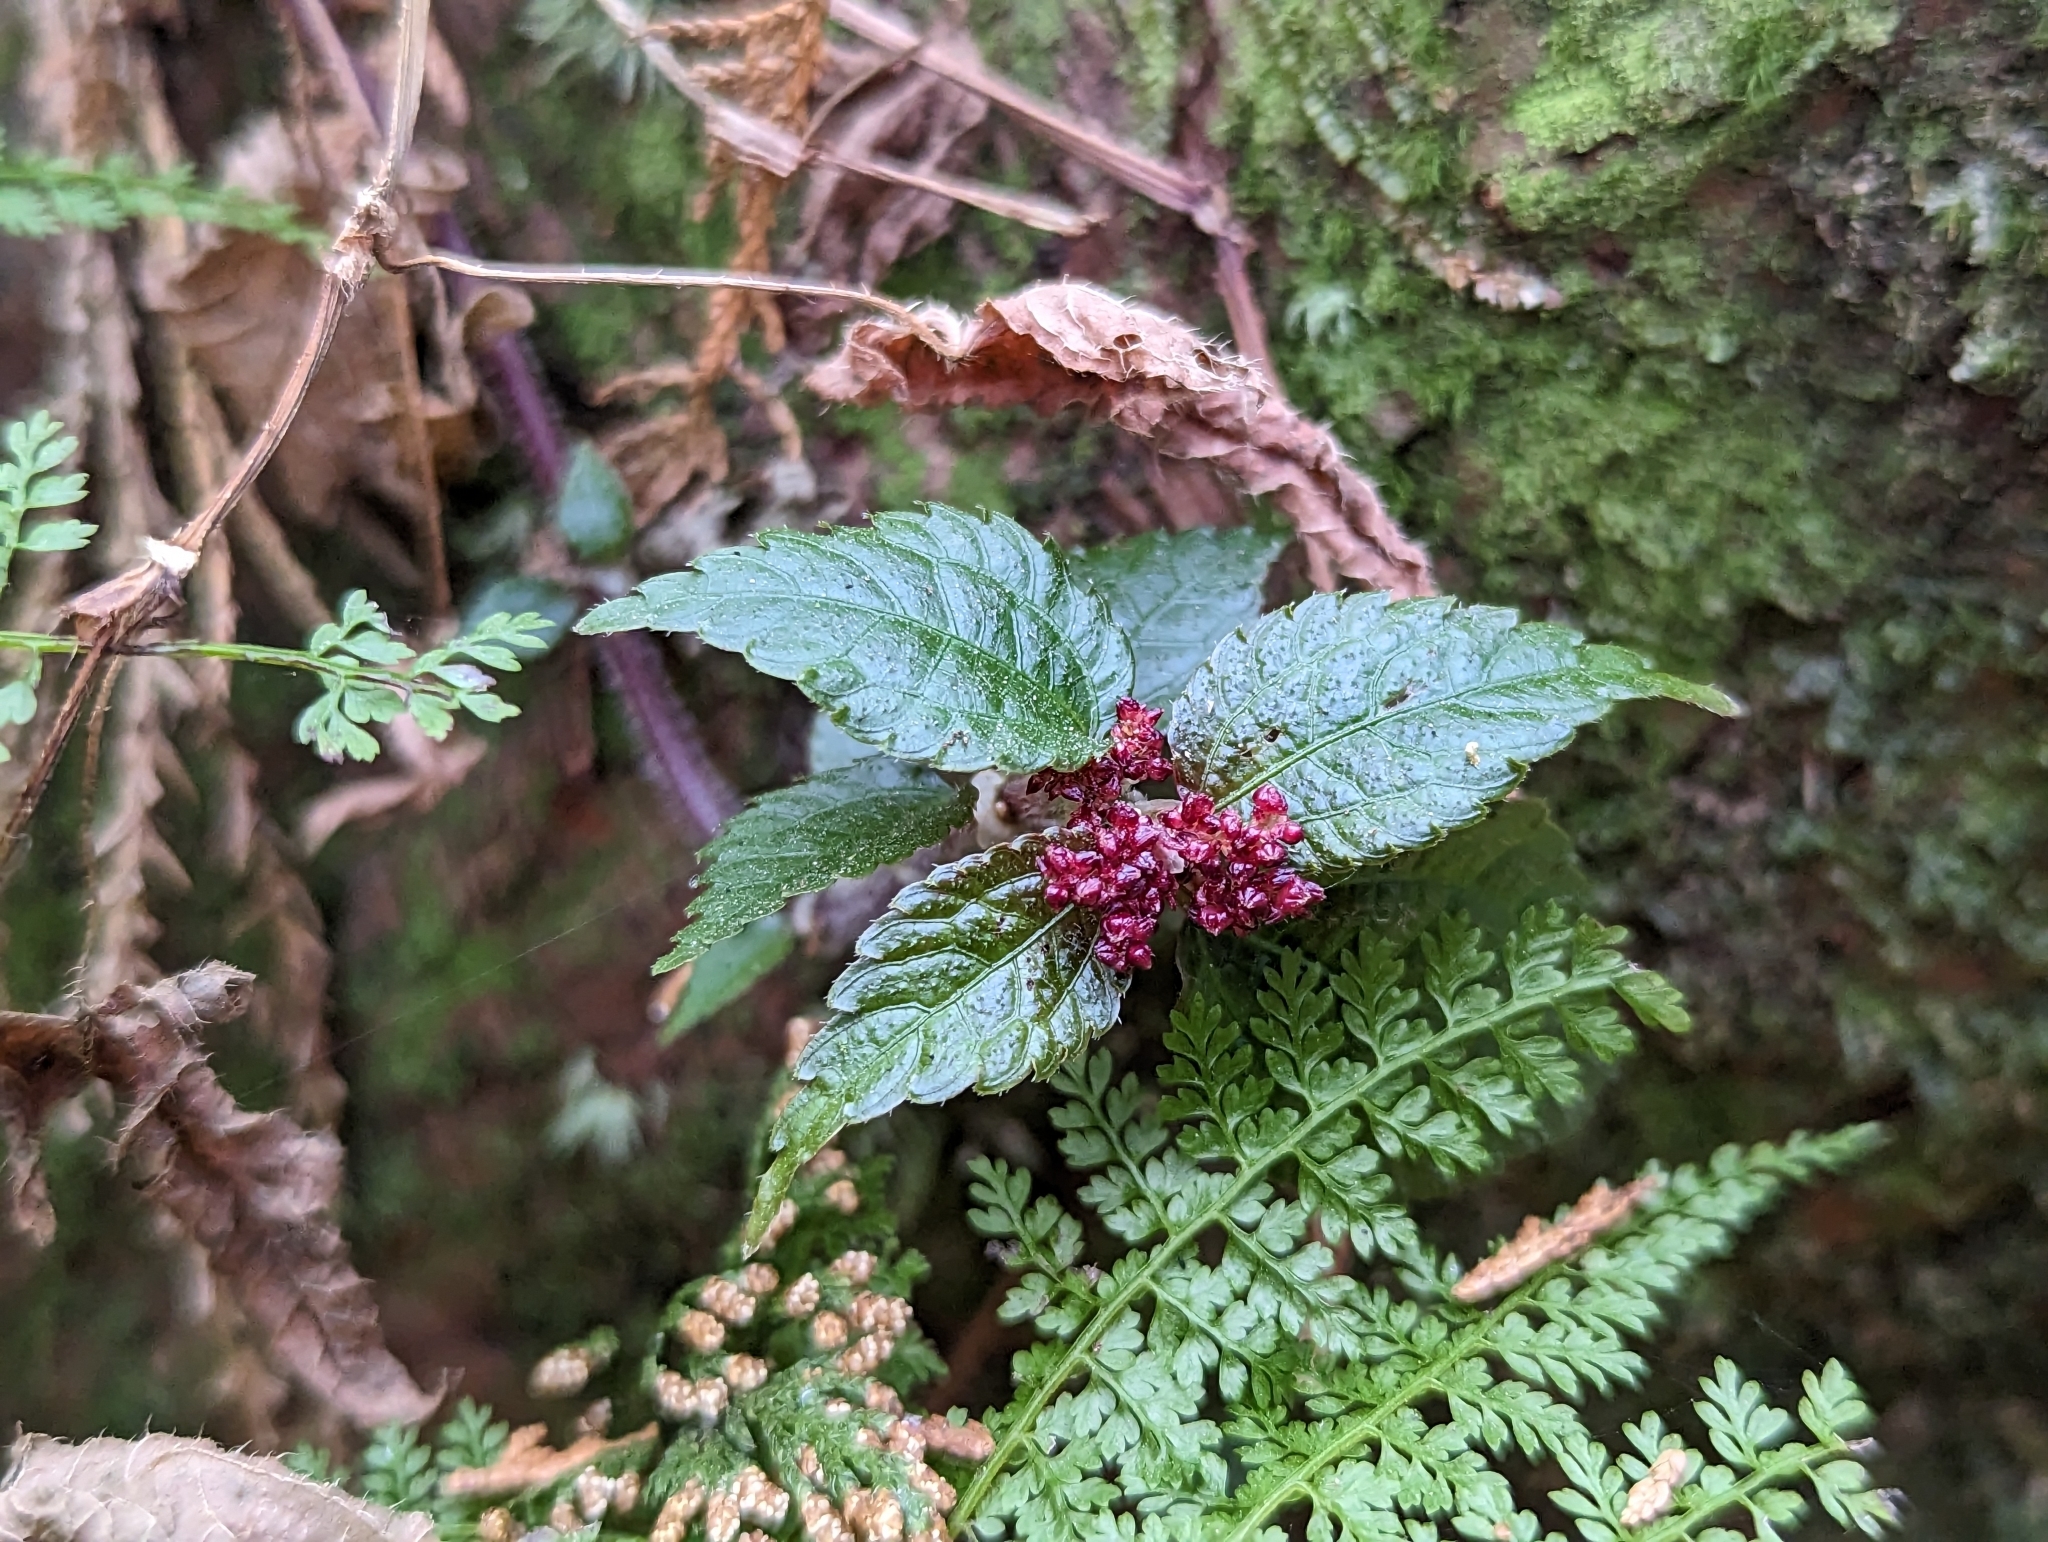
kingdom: Plantae
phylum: Tracheophyta
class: Magnoliopsida
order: Rosales
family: Urticaceae
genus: Pilea
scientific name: Pilea aquarum
